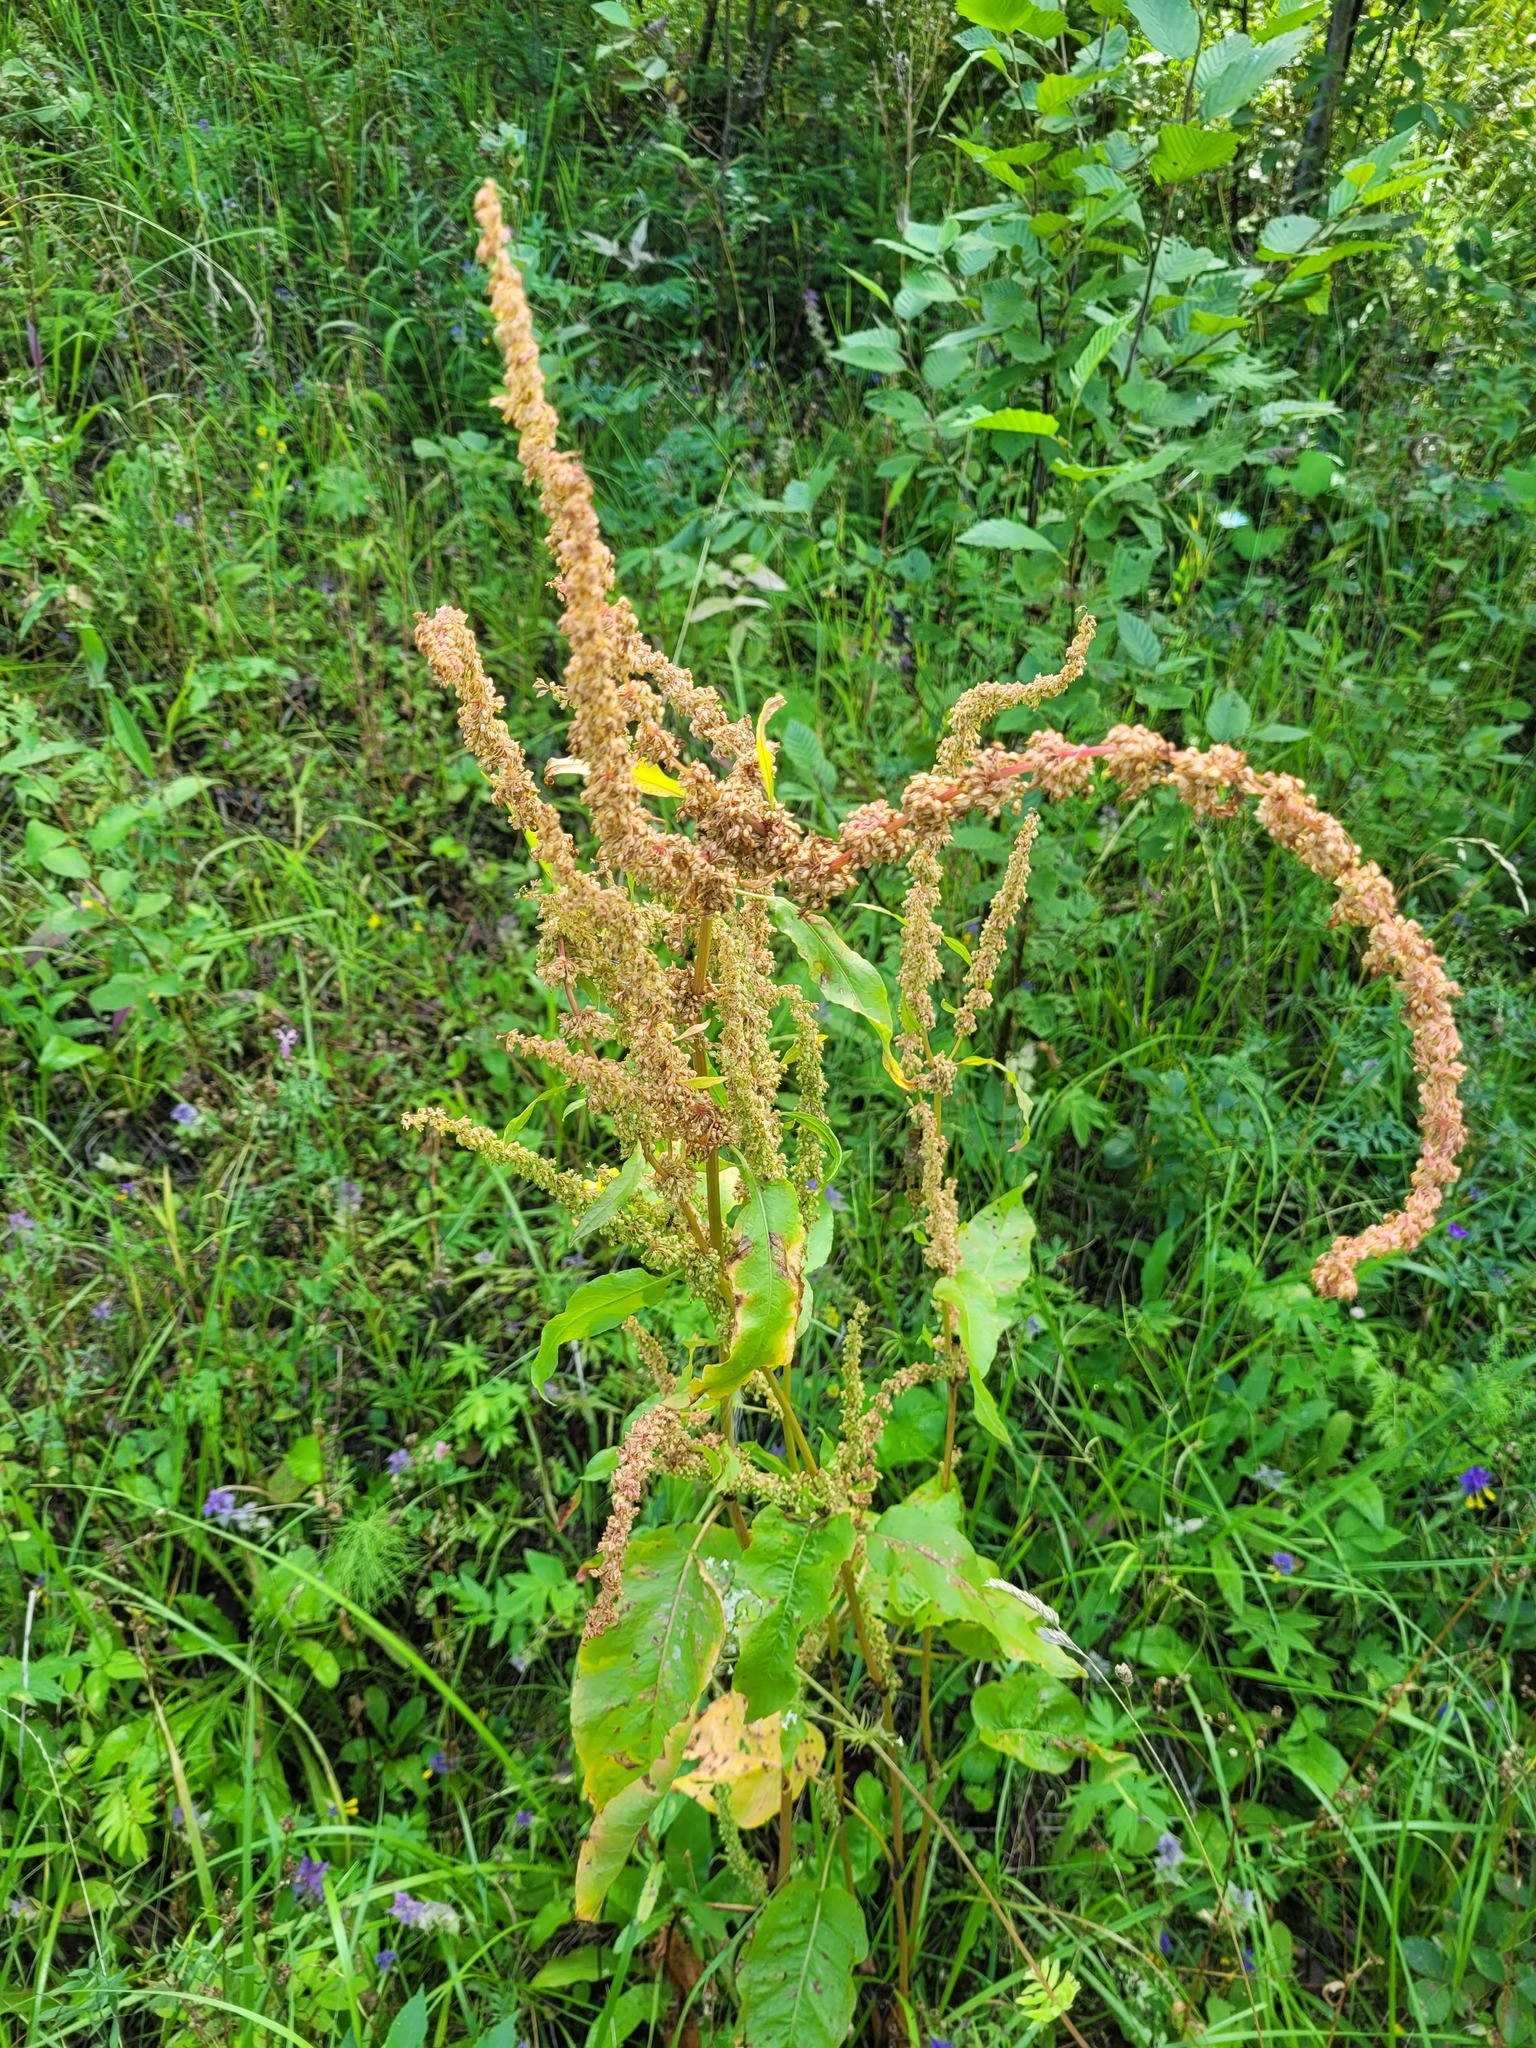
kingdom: Plantae
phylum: Tracheophyta
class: Magnoliopsida
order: Caryophyllales
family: Polygonaceae
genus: Rumex
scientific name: Rumex obtusifolius
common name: Bitter dock
